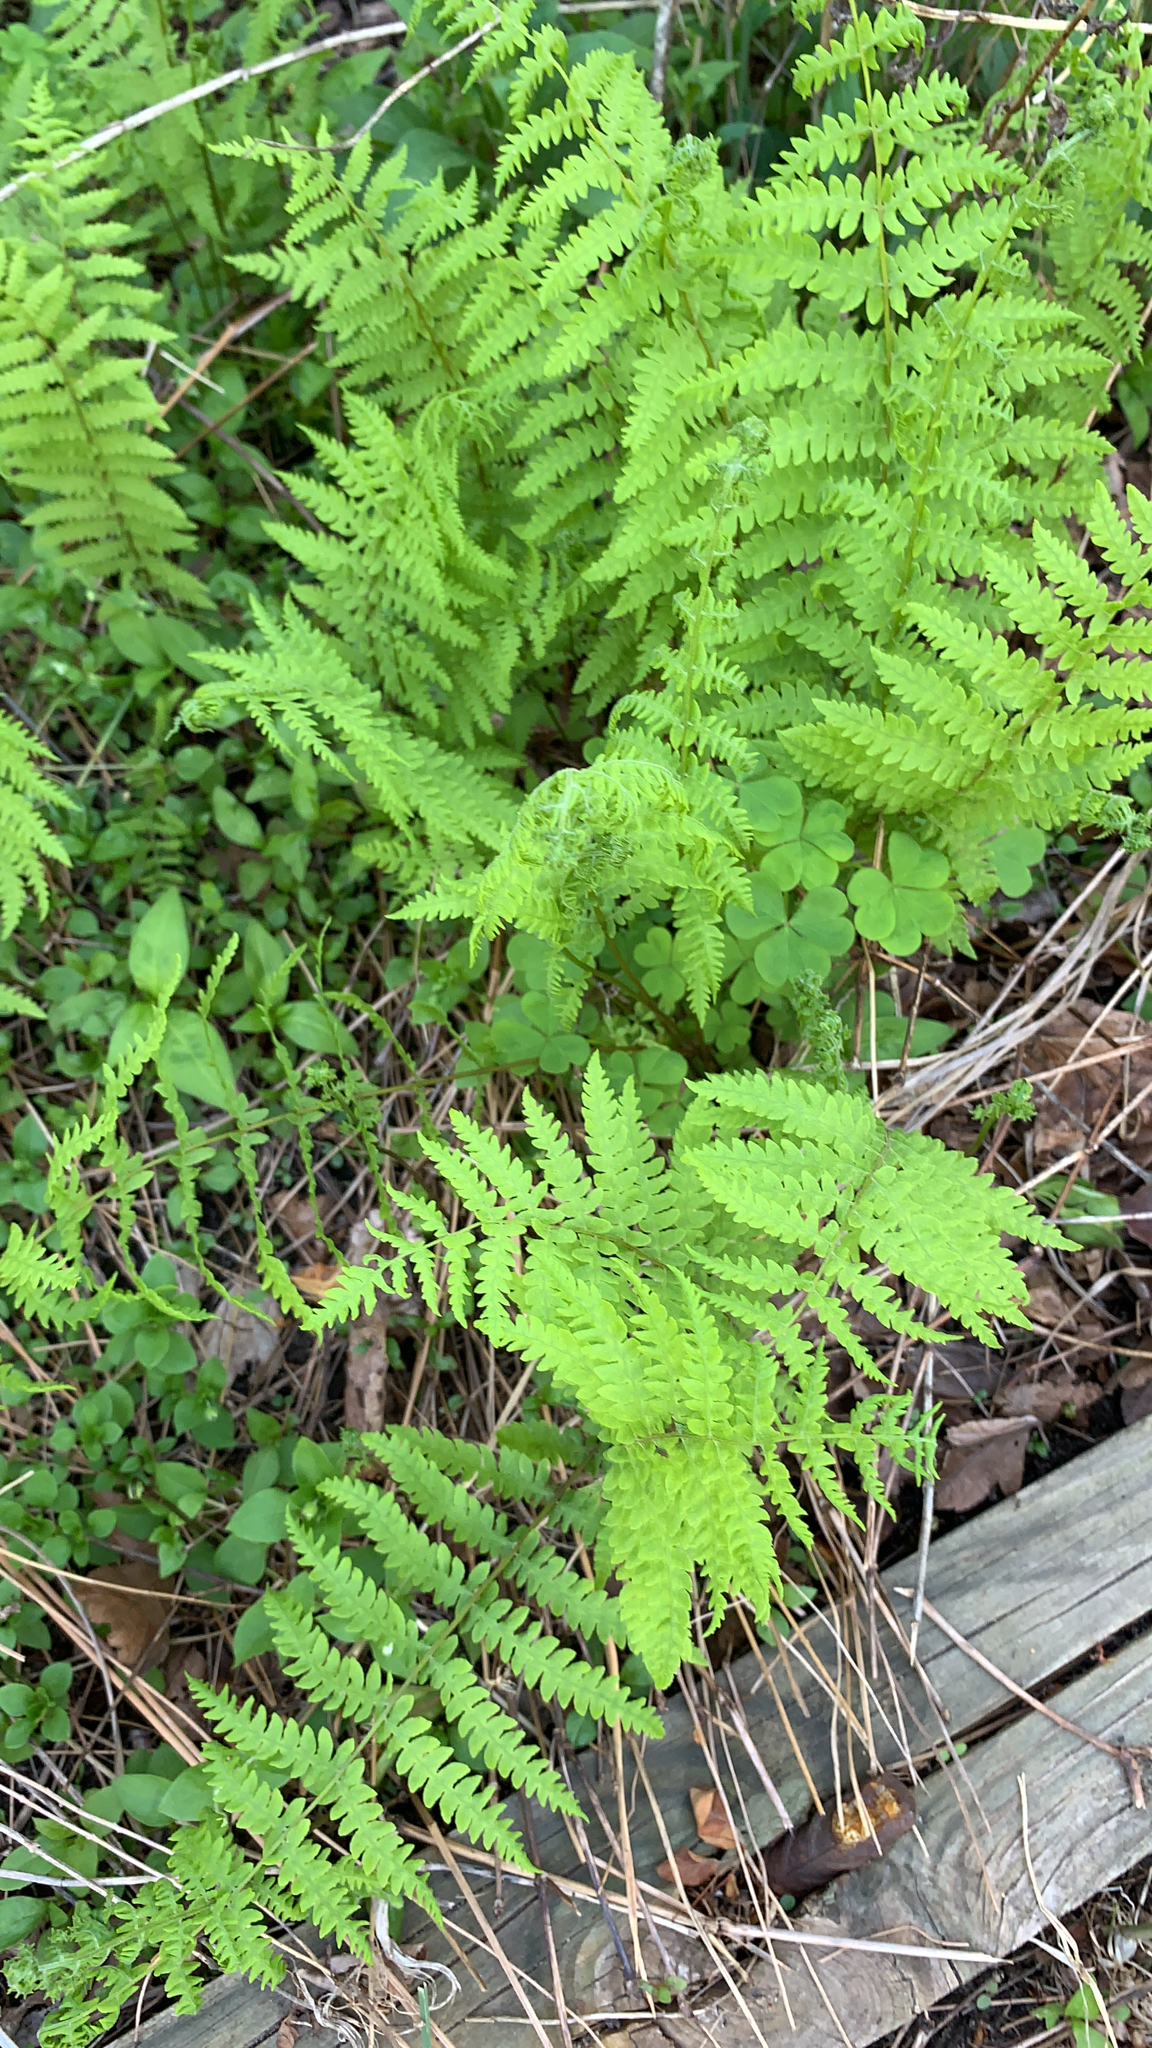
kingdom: Plantae
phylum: Tracheophyta
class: Polypodiopsida
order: Polypodiales
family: Thelypteridaceae
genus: Thelypteris
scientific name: Thelypteris palustris
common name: Marsh fern
